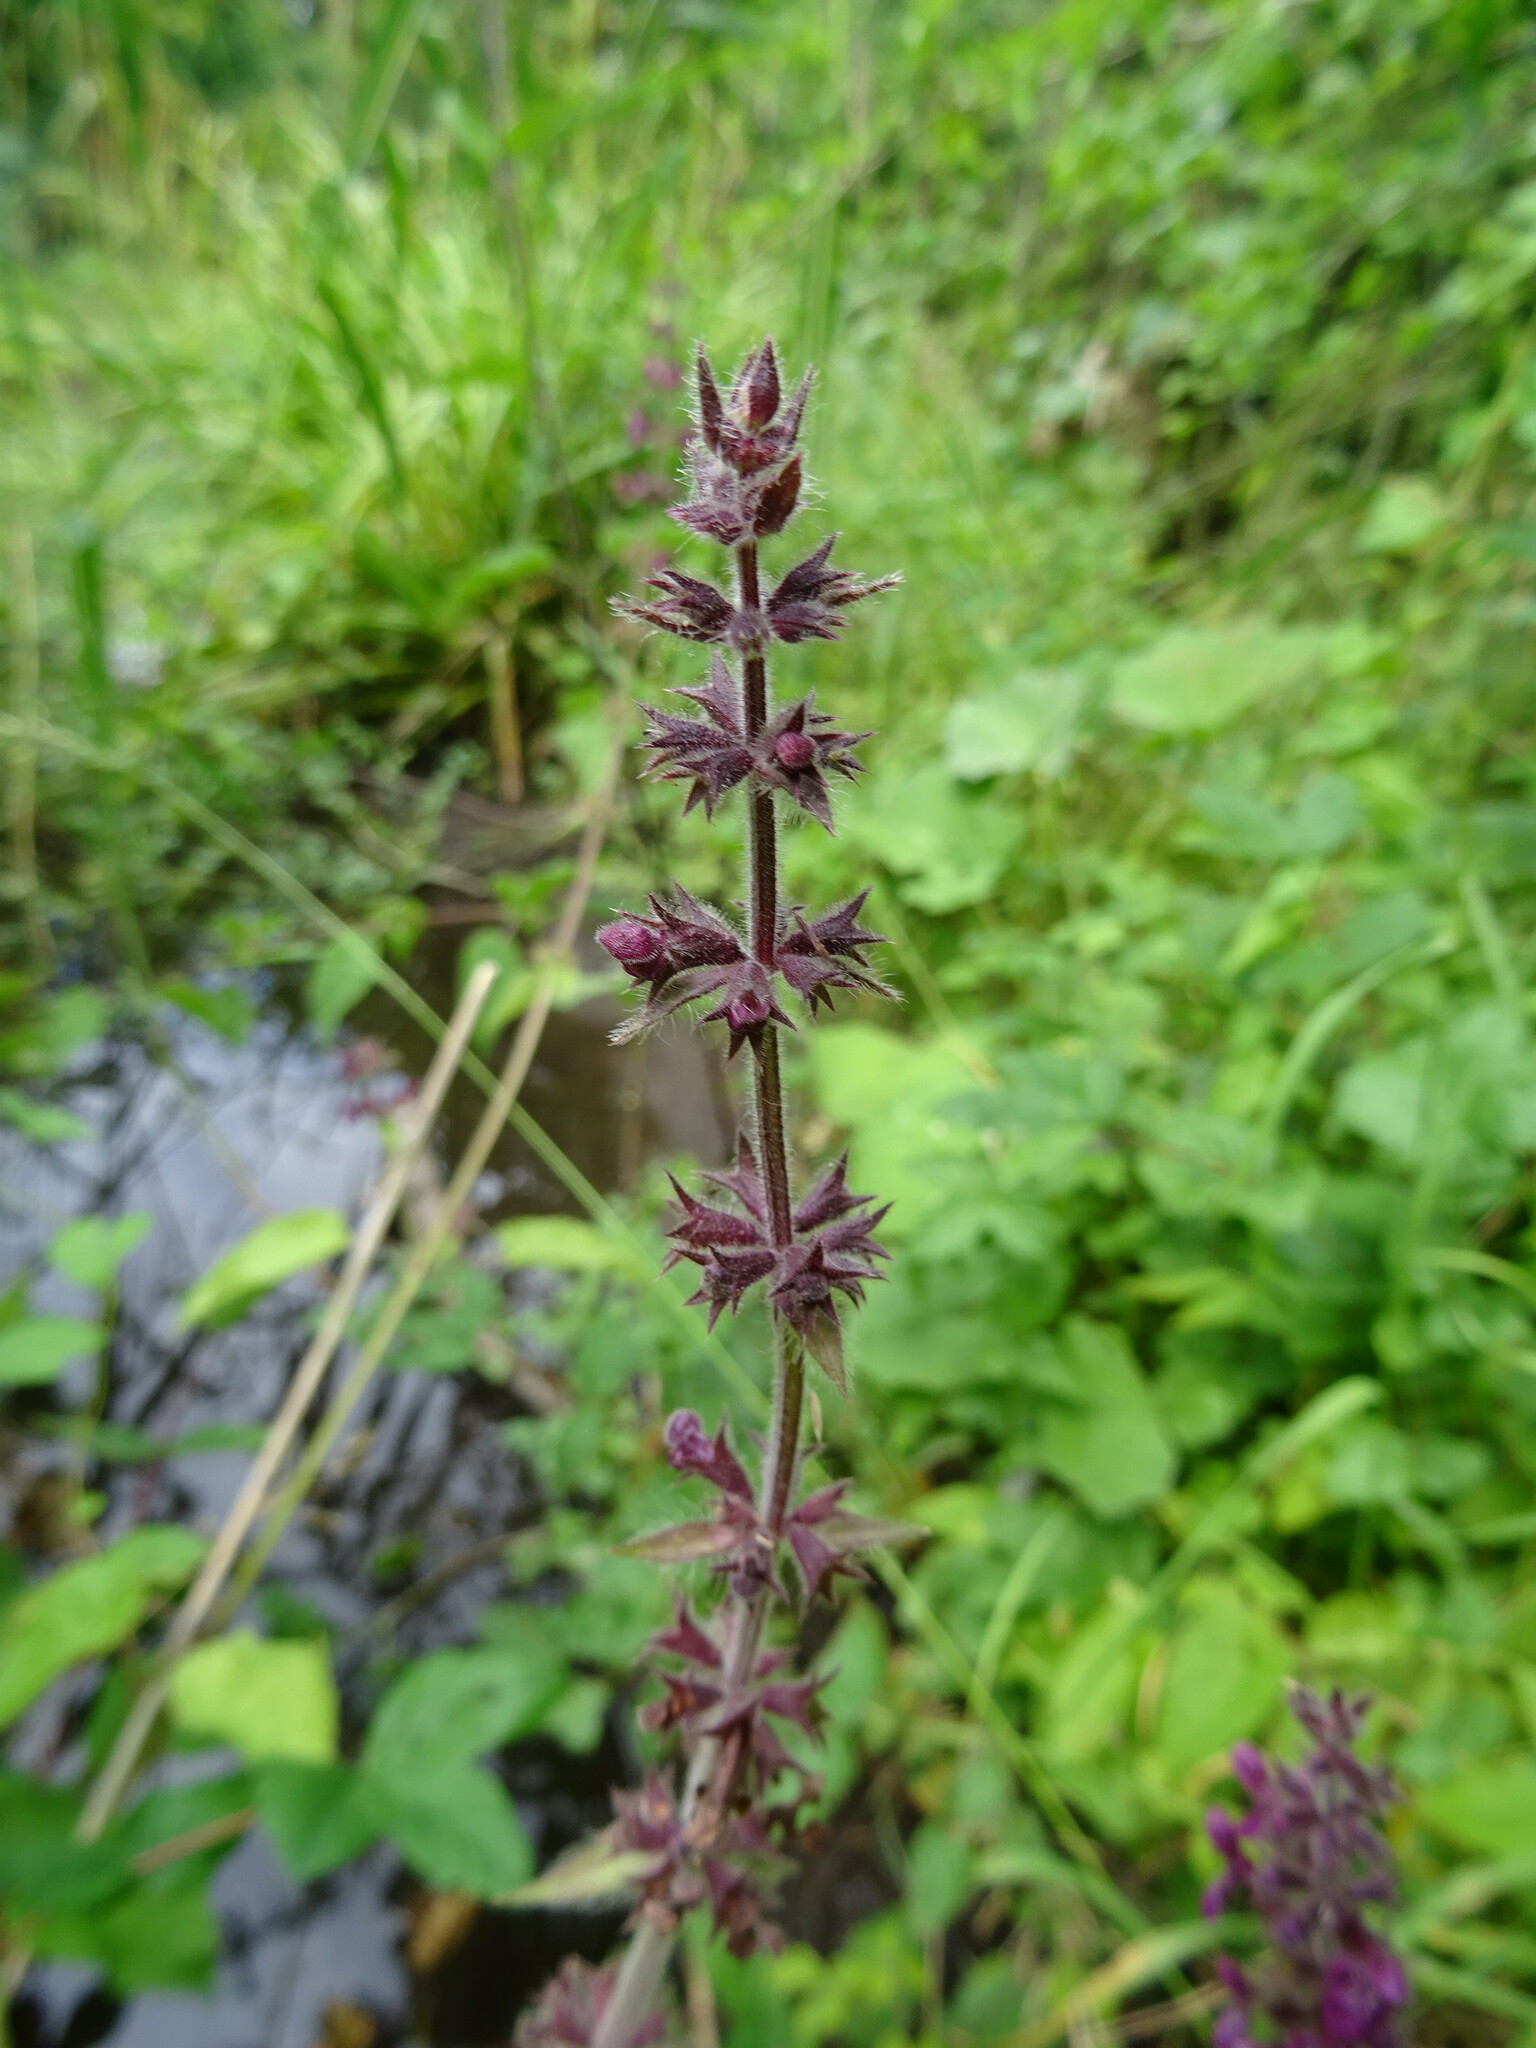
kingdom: Plantae
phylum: Tracheophyta
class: Magnoliopsida
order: Lamiales
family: Lamiaceae
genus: Stachys
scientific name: Stachys sylvatica
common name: Hedge woundwort
